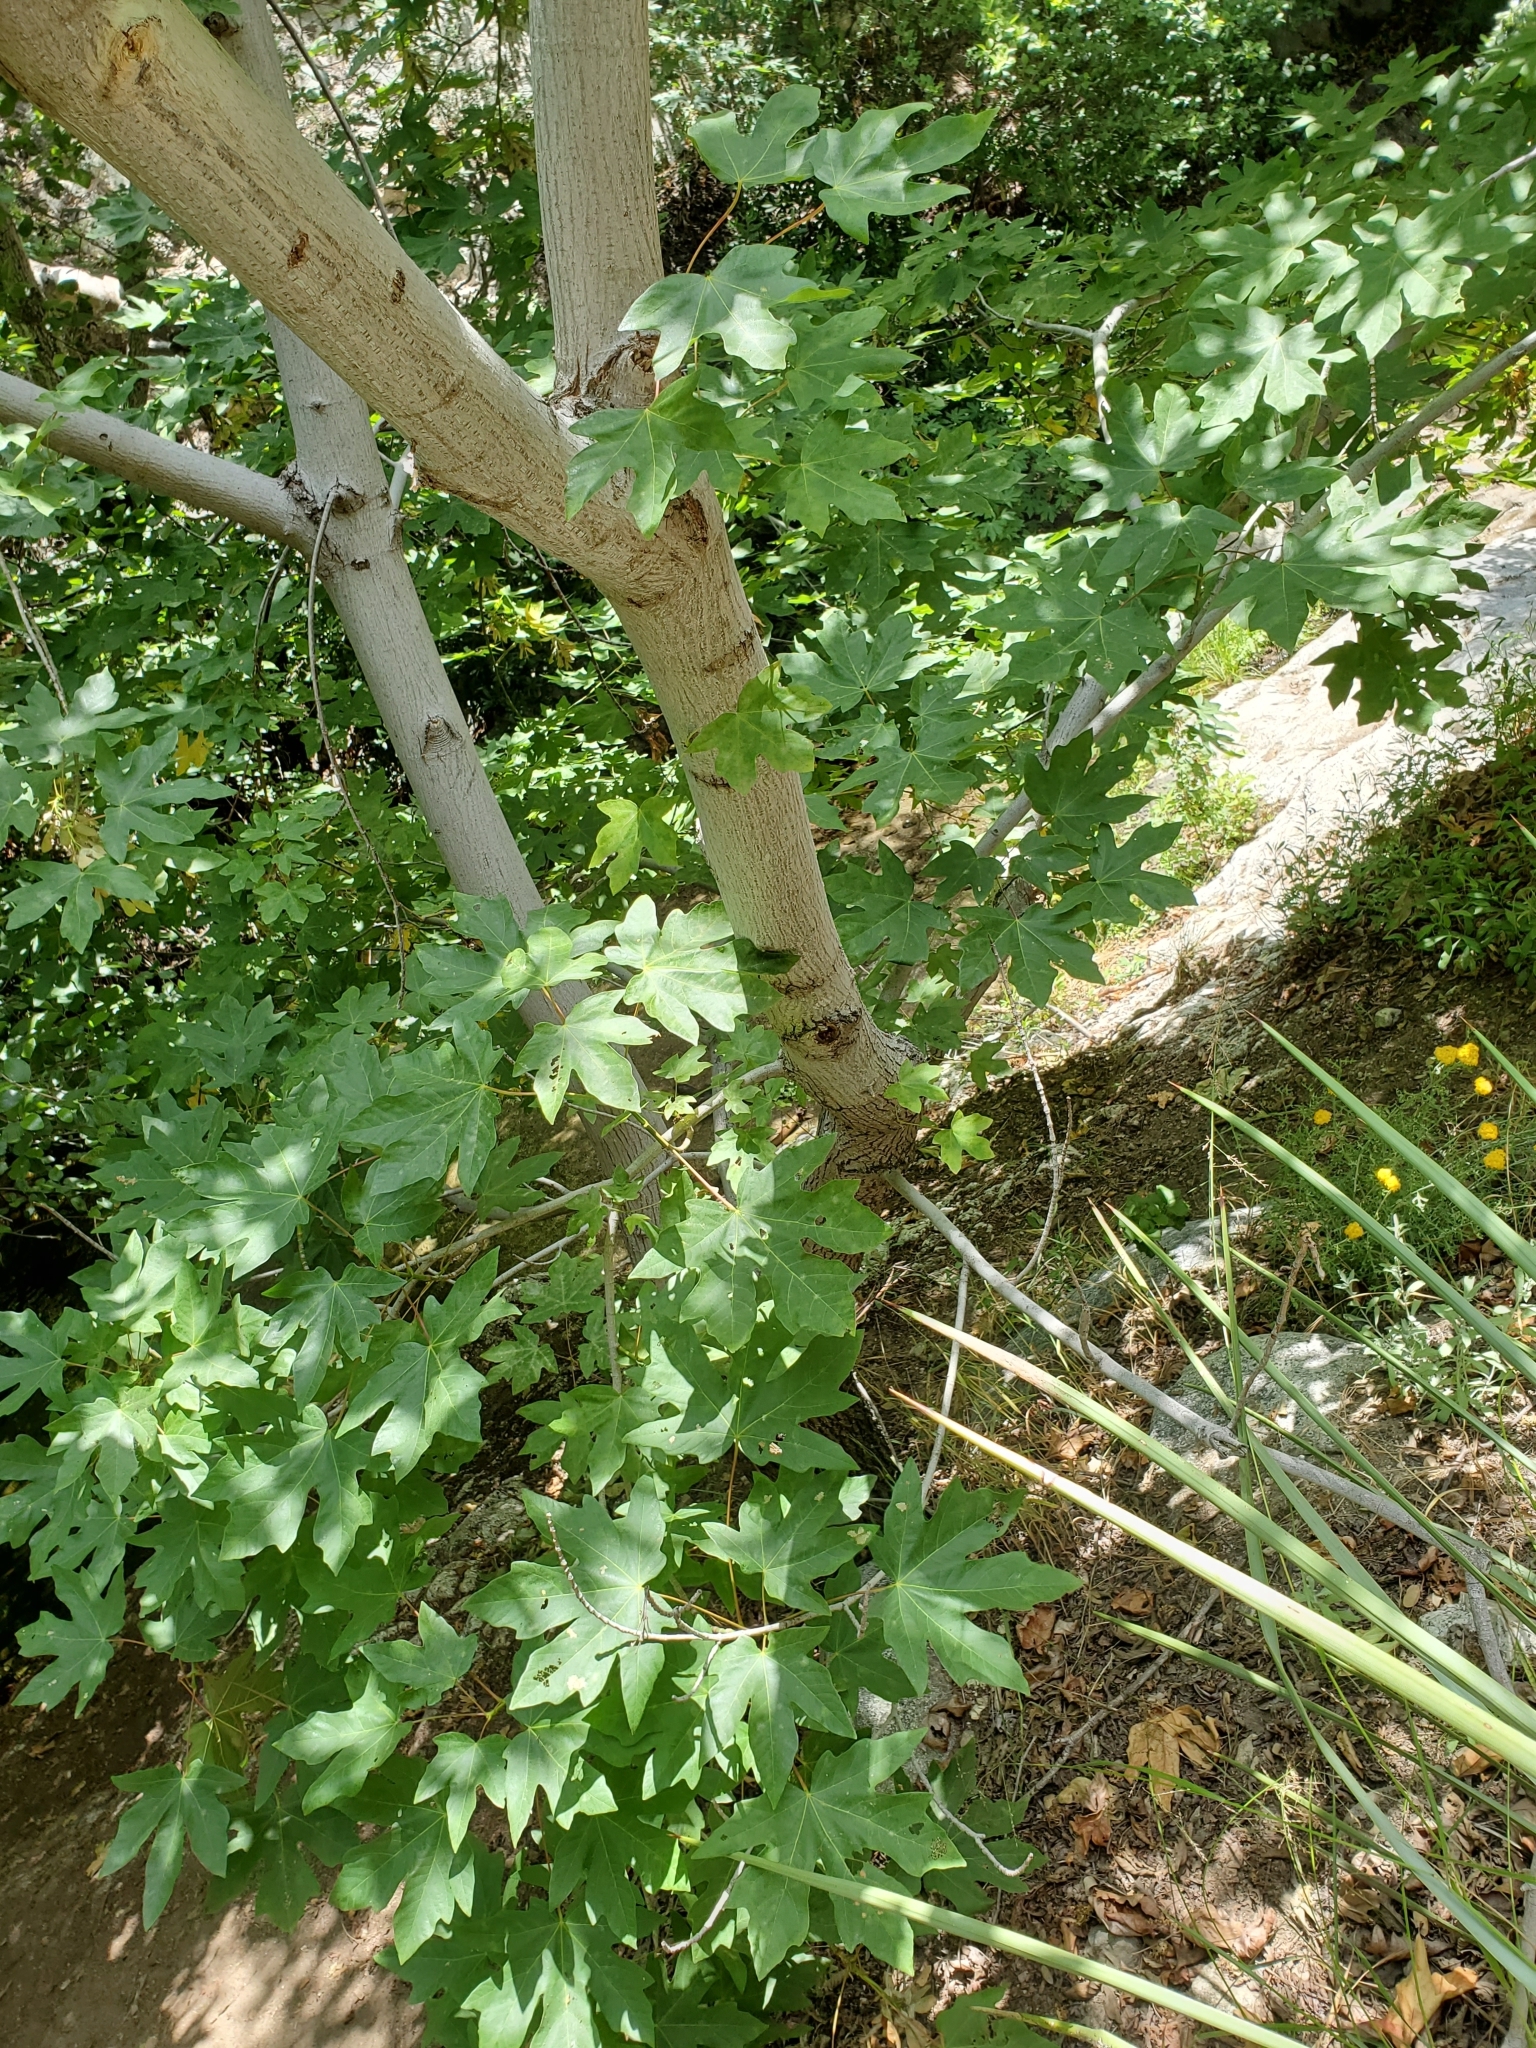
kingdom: Plantae
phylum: Tracheophyta
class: Magnoliopsida
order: Sapindales
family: Sapindaceae
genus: Acer
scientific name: Acer macrophyllum
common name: Oregon maple
